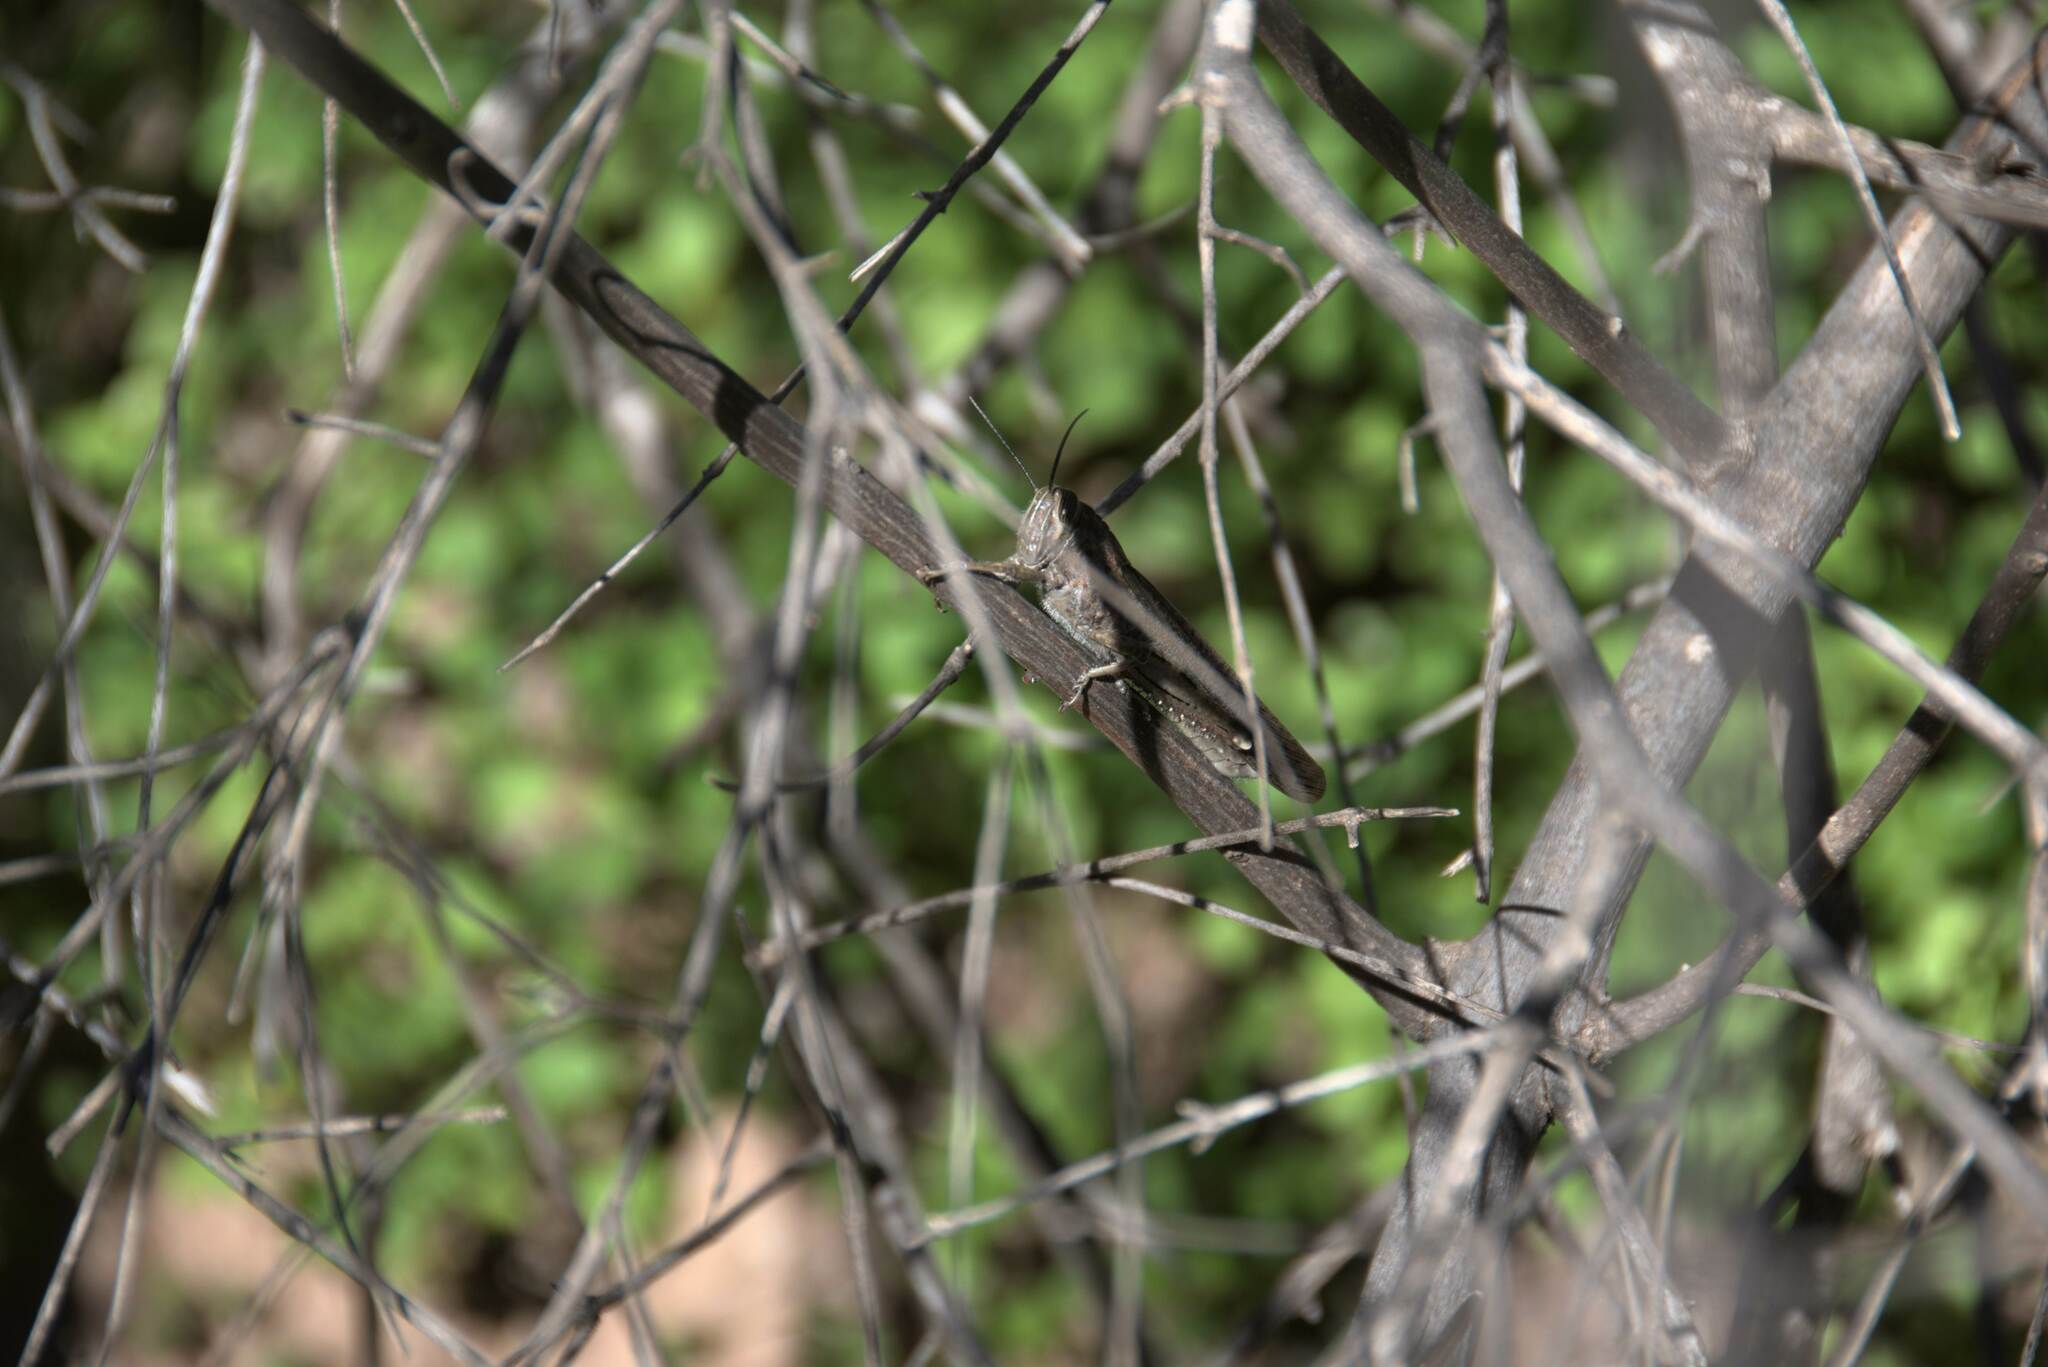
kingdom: Animalia
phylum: Arthropoda
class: Insecta
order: Orthoptera
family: Acrididae
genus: Anacridium
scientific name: Anacridium aegyptium
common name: Egyptian grasshopper
